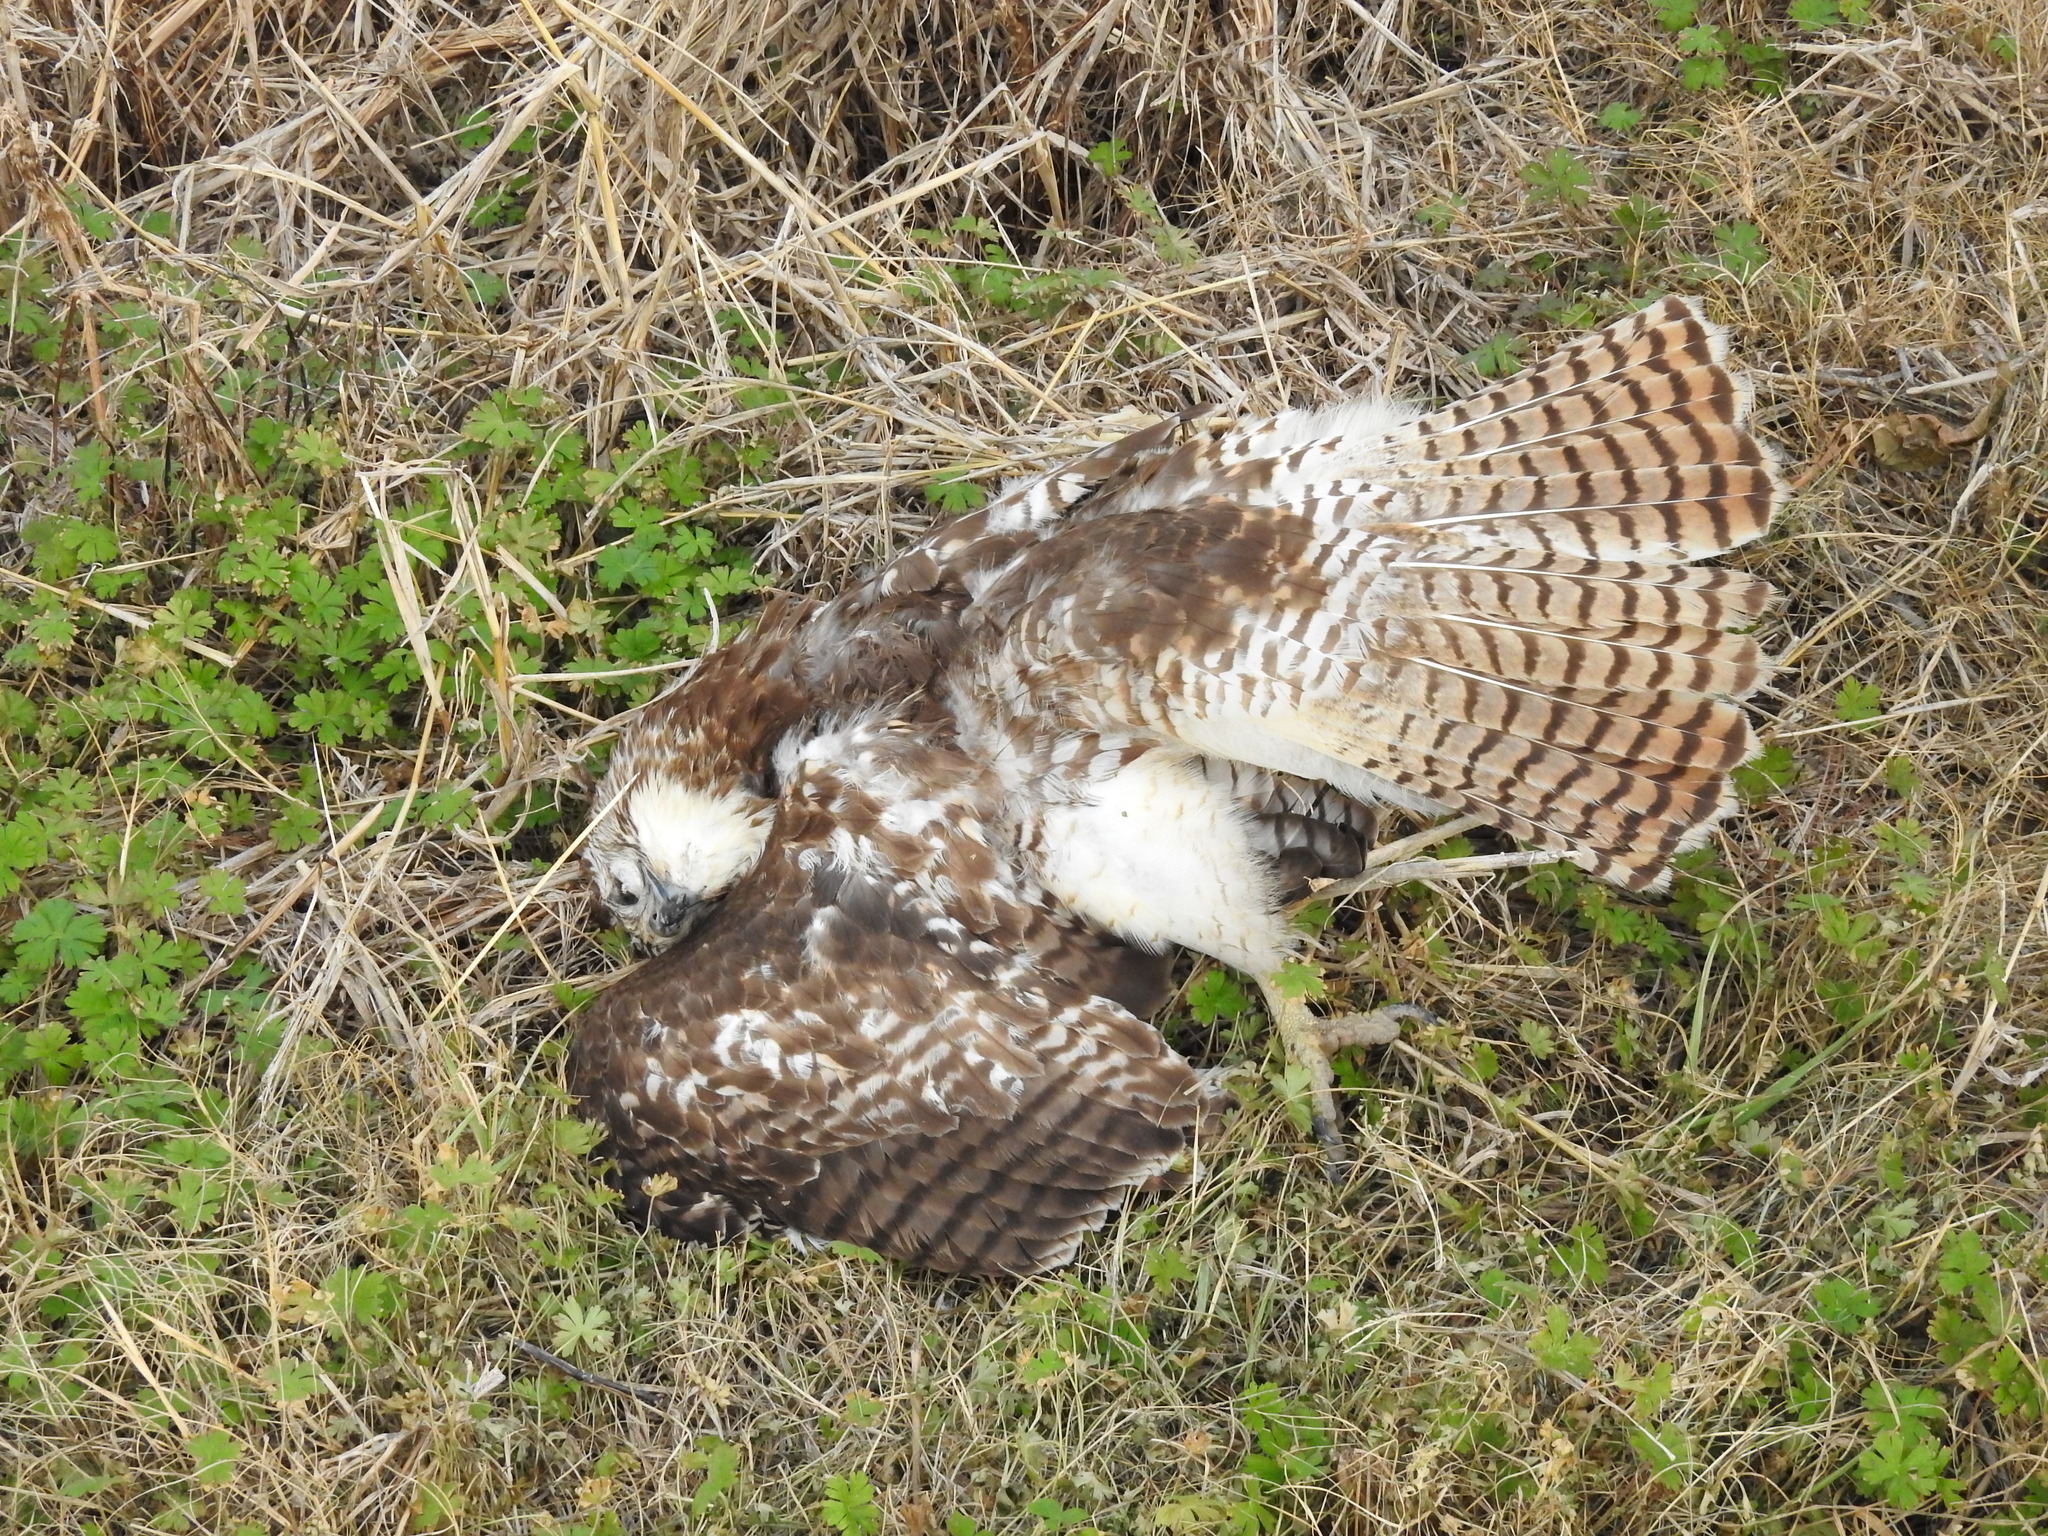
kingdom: Animalia
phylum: Chordata
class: Aves
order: Accipitriformes
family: Accipitridae
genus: Buteo
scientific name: Buteo jamaicensis
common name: Red-tailed hawk
